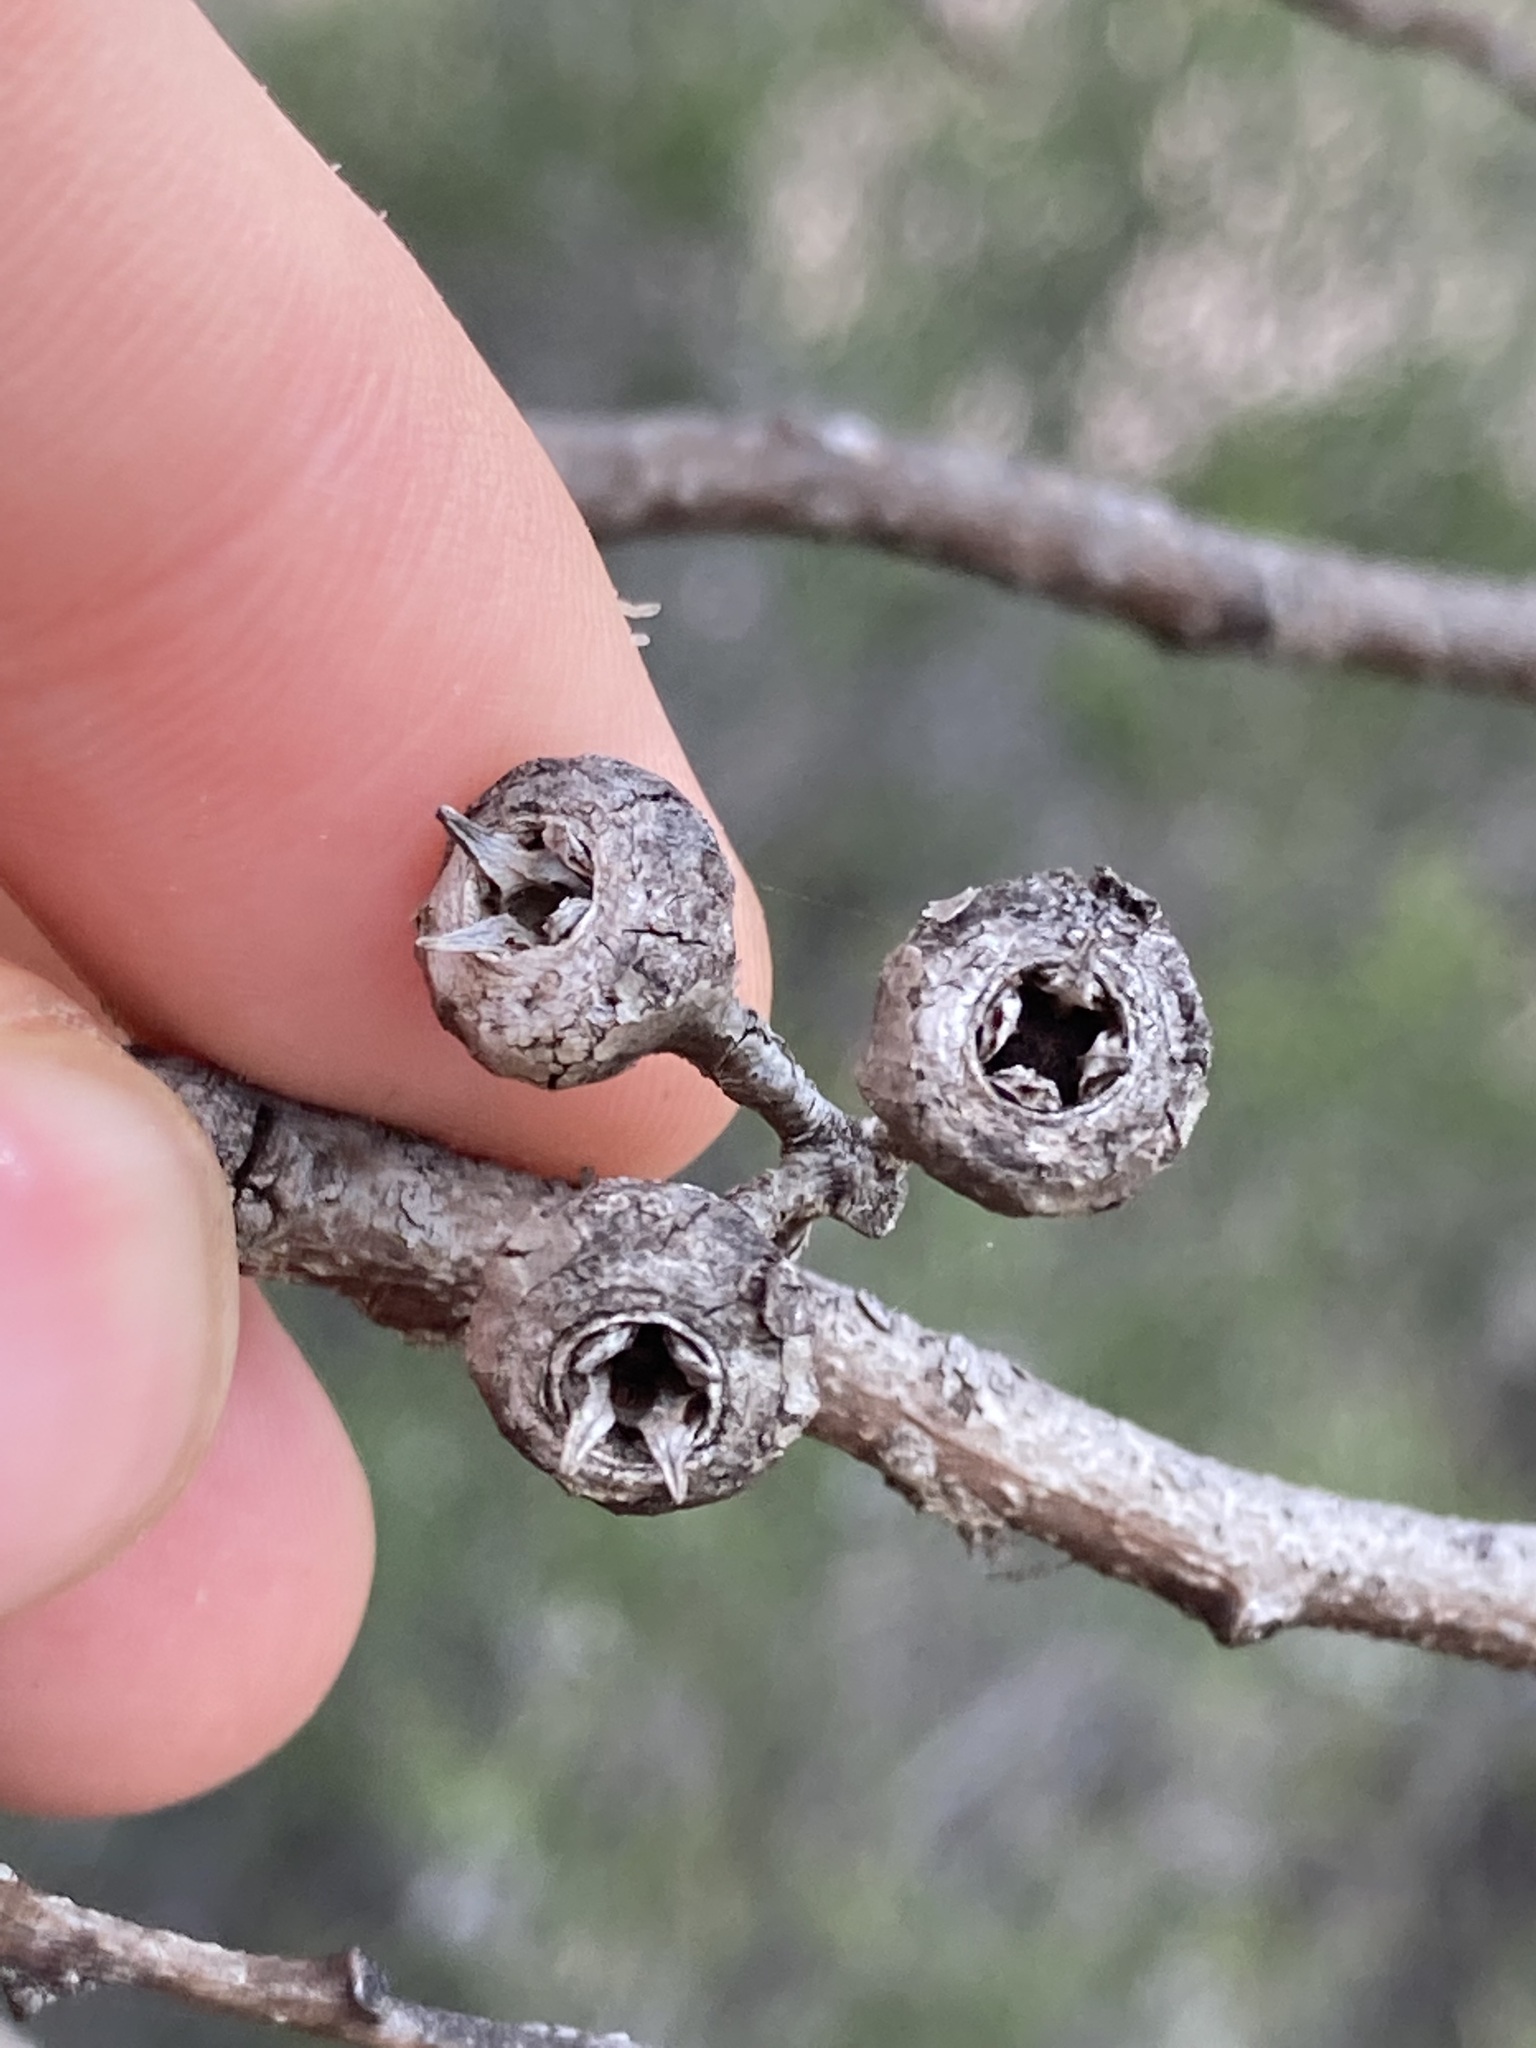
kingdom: Plantae
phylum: Tracheophyta
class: Magnoliopsida
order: Myrtales
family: Myrtaceae
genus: Eucalyptus
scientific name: Eucalyptus ecostata
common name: Coastal silver mallee
